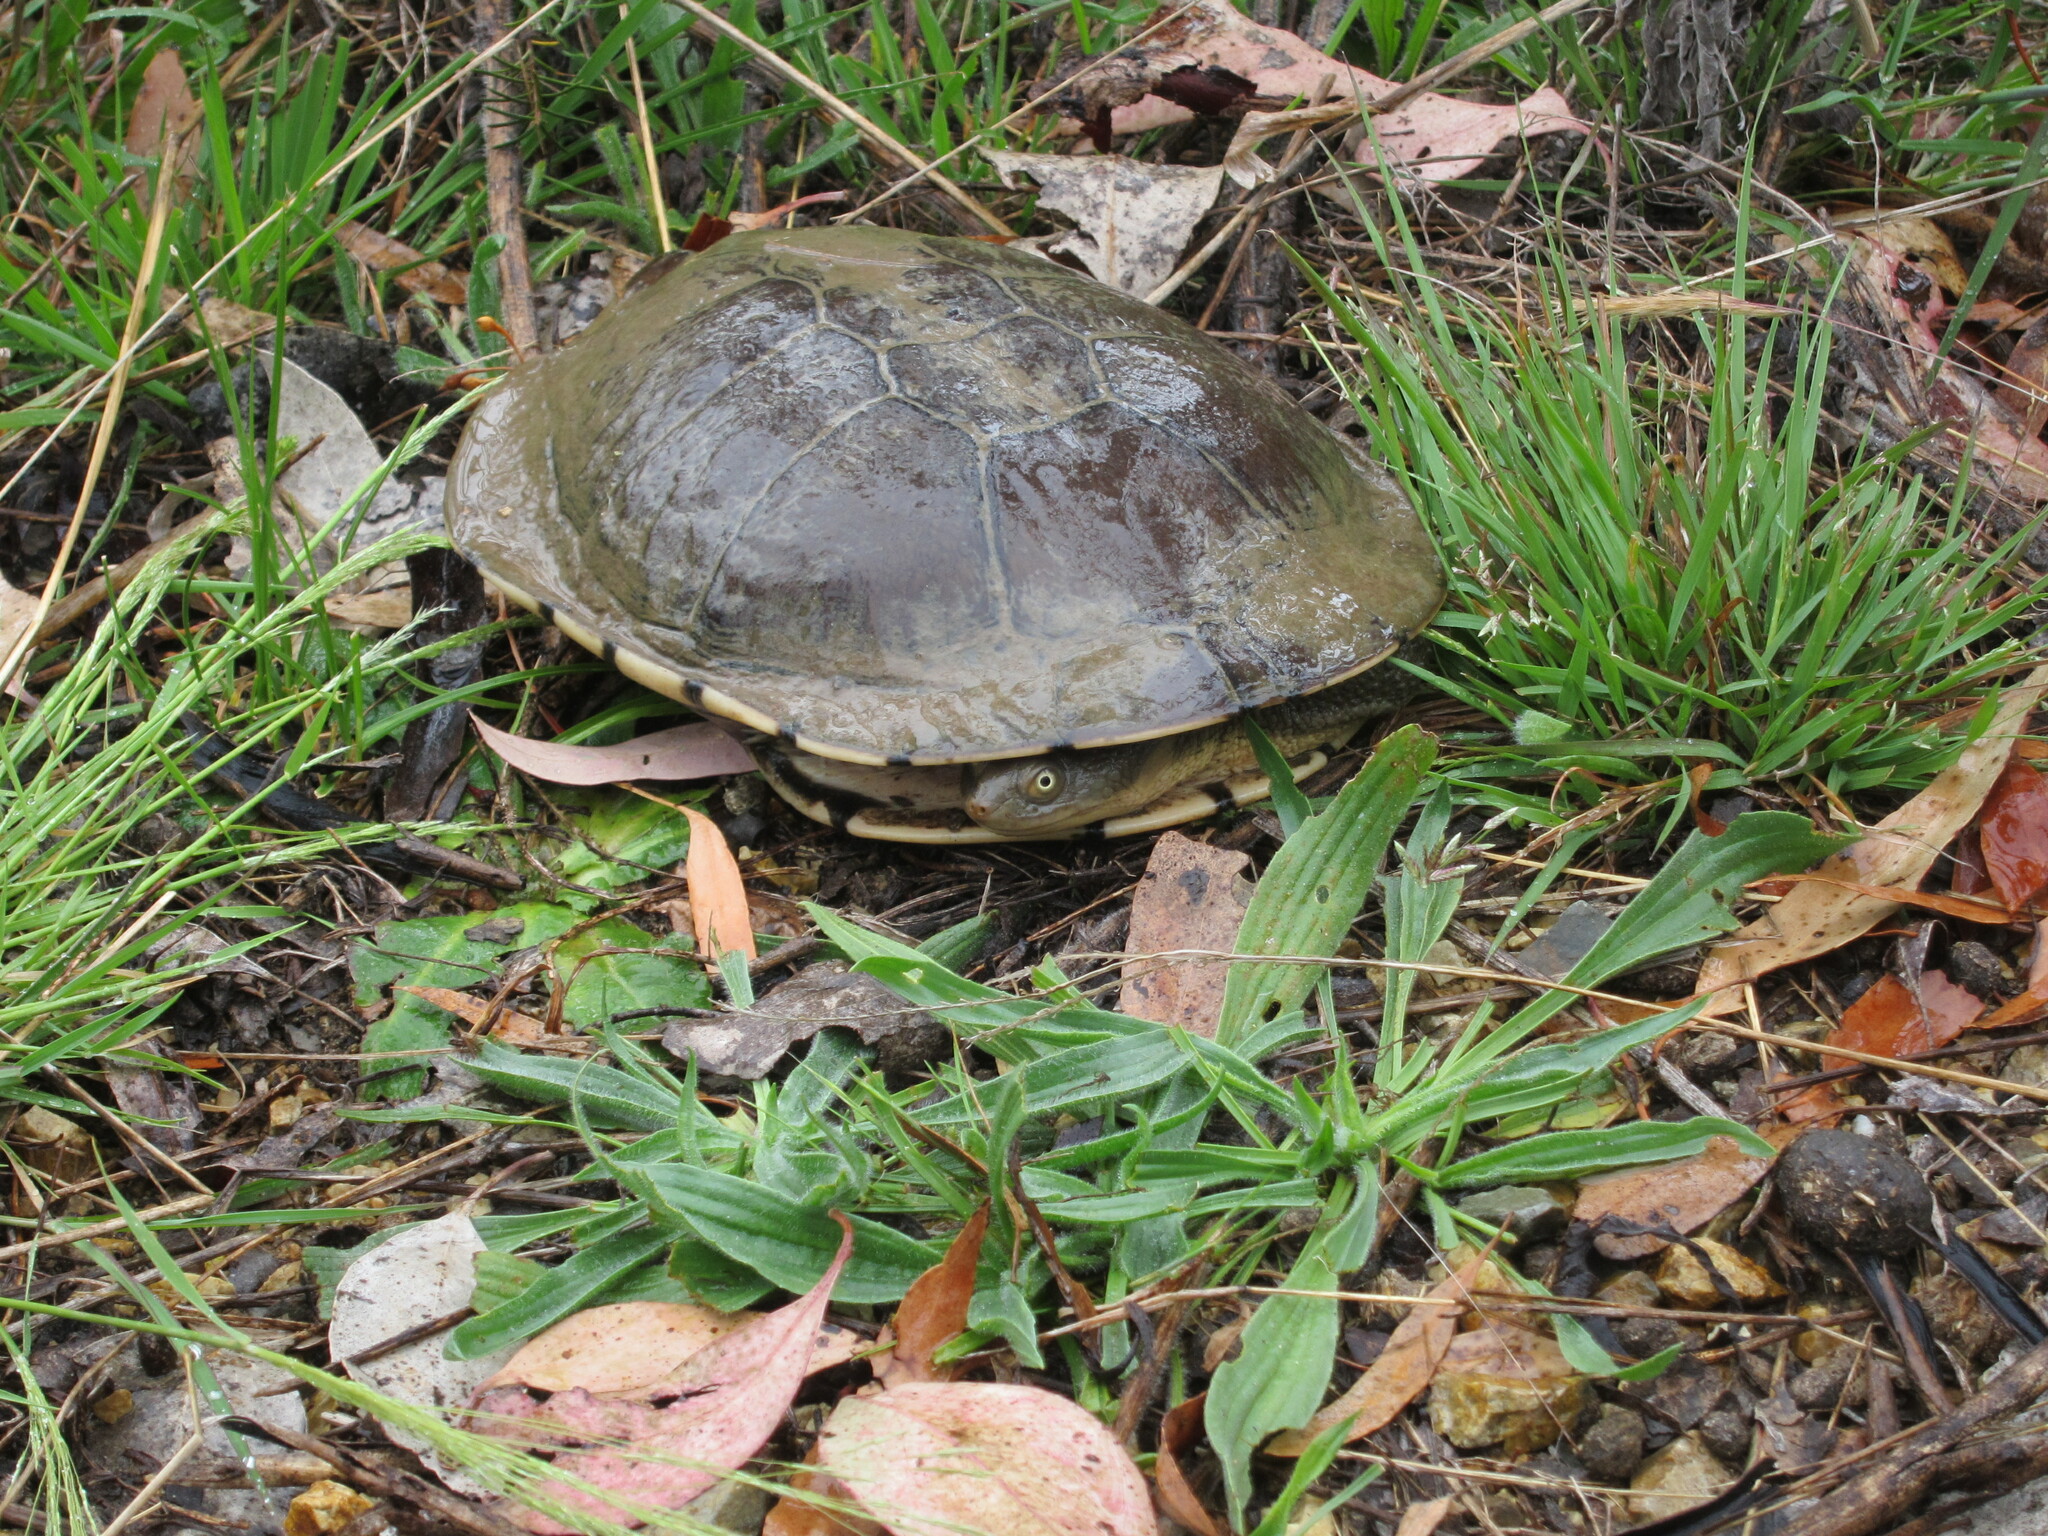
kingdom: Animalia
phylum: Chordata
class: Testudines
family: Chelidae
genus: Chelodina
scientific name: Chelodina longicollis
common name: Eastern snake-necked turtle
